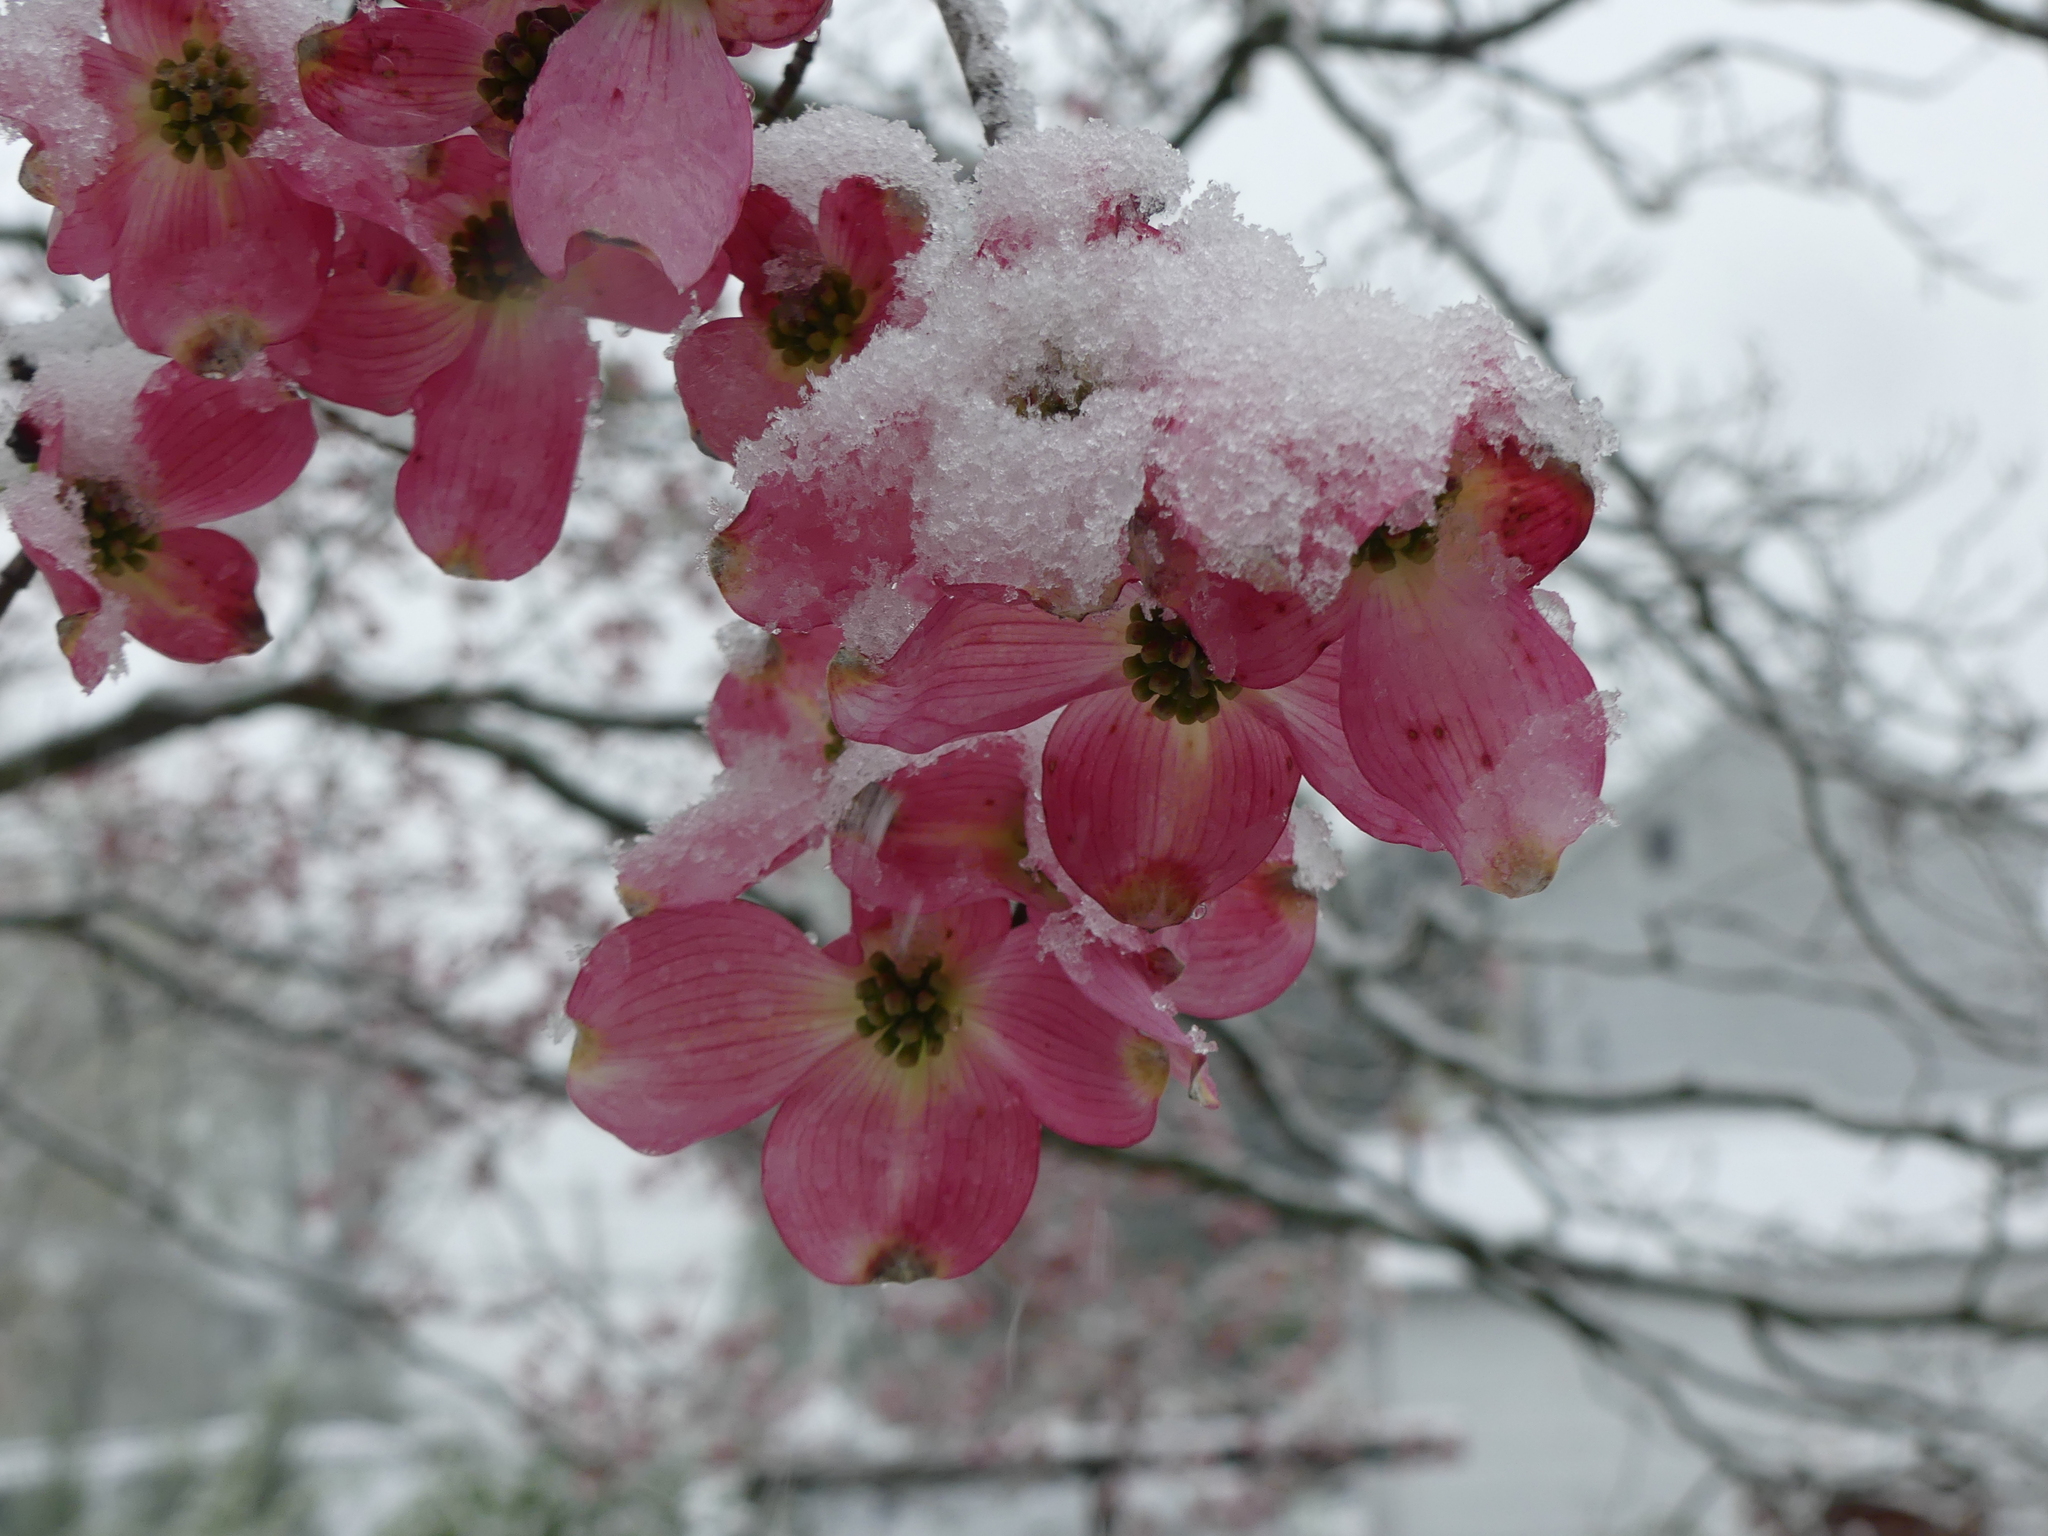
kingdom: Plantae
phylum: Tracheophyta
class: Magnoliopsida
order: Cornales
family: Cornaceae
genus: Cornus
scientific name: Cornus florida
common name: Flowering dogwood
